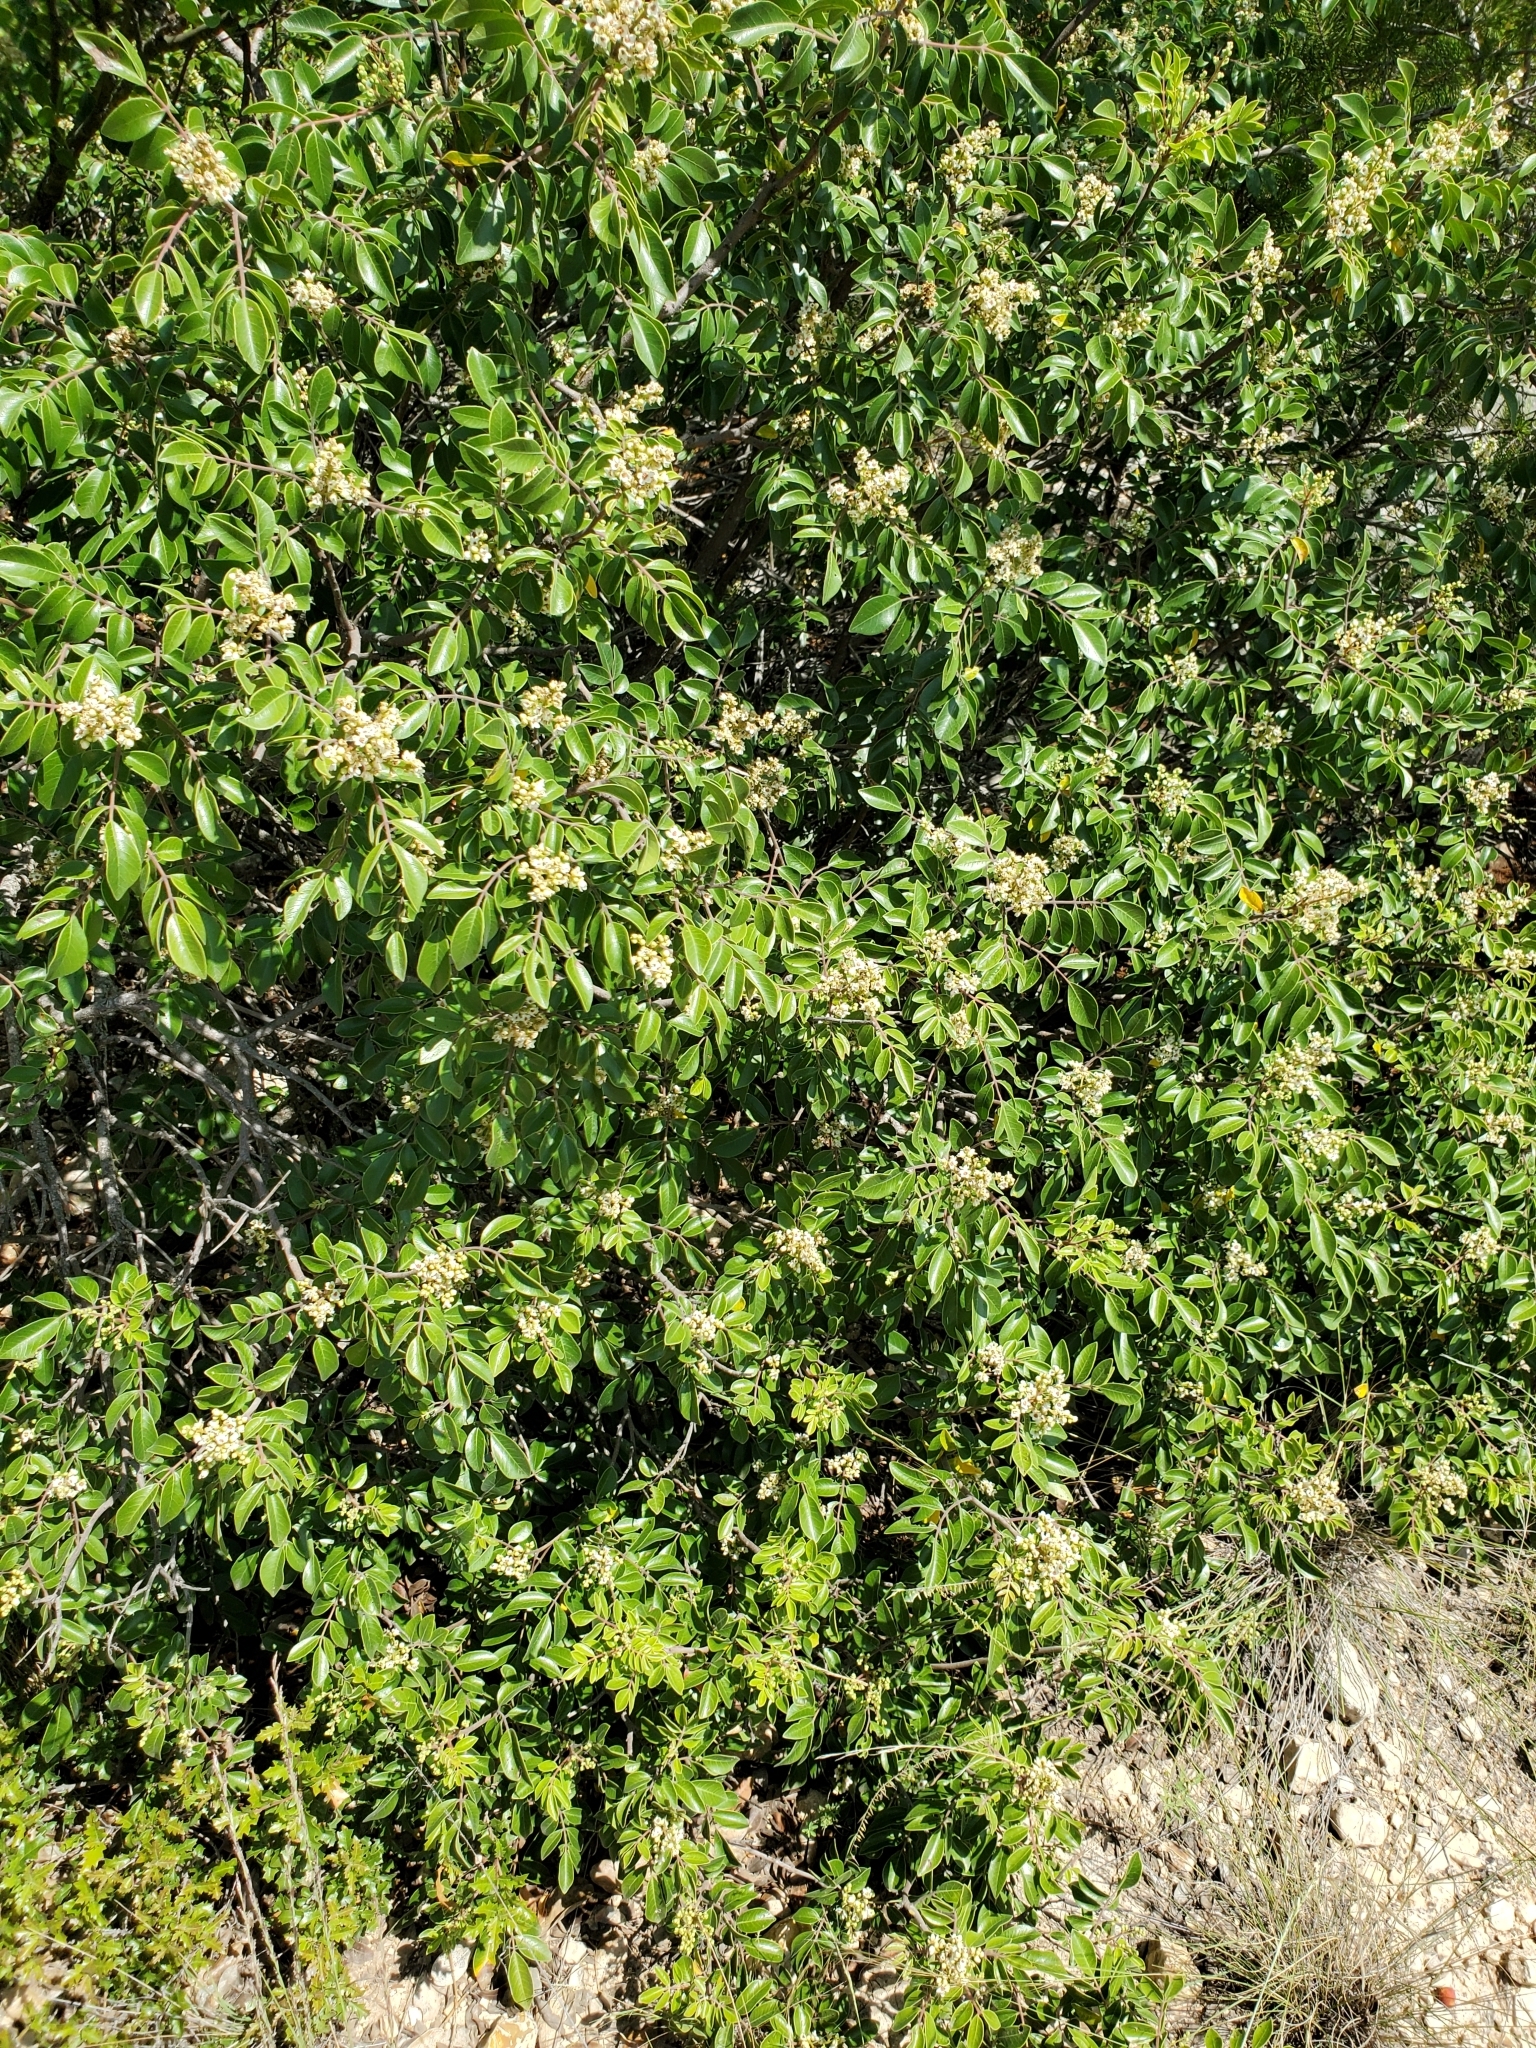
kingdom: Plantae
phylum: Tracheophyta
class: Magnoliopsida
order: Sapindales
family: Anacardiaceae
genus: Rhus
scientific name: Rhus virens
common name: Evergreen sumac
